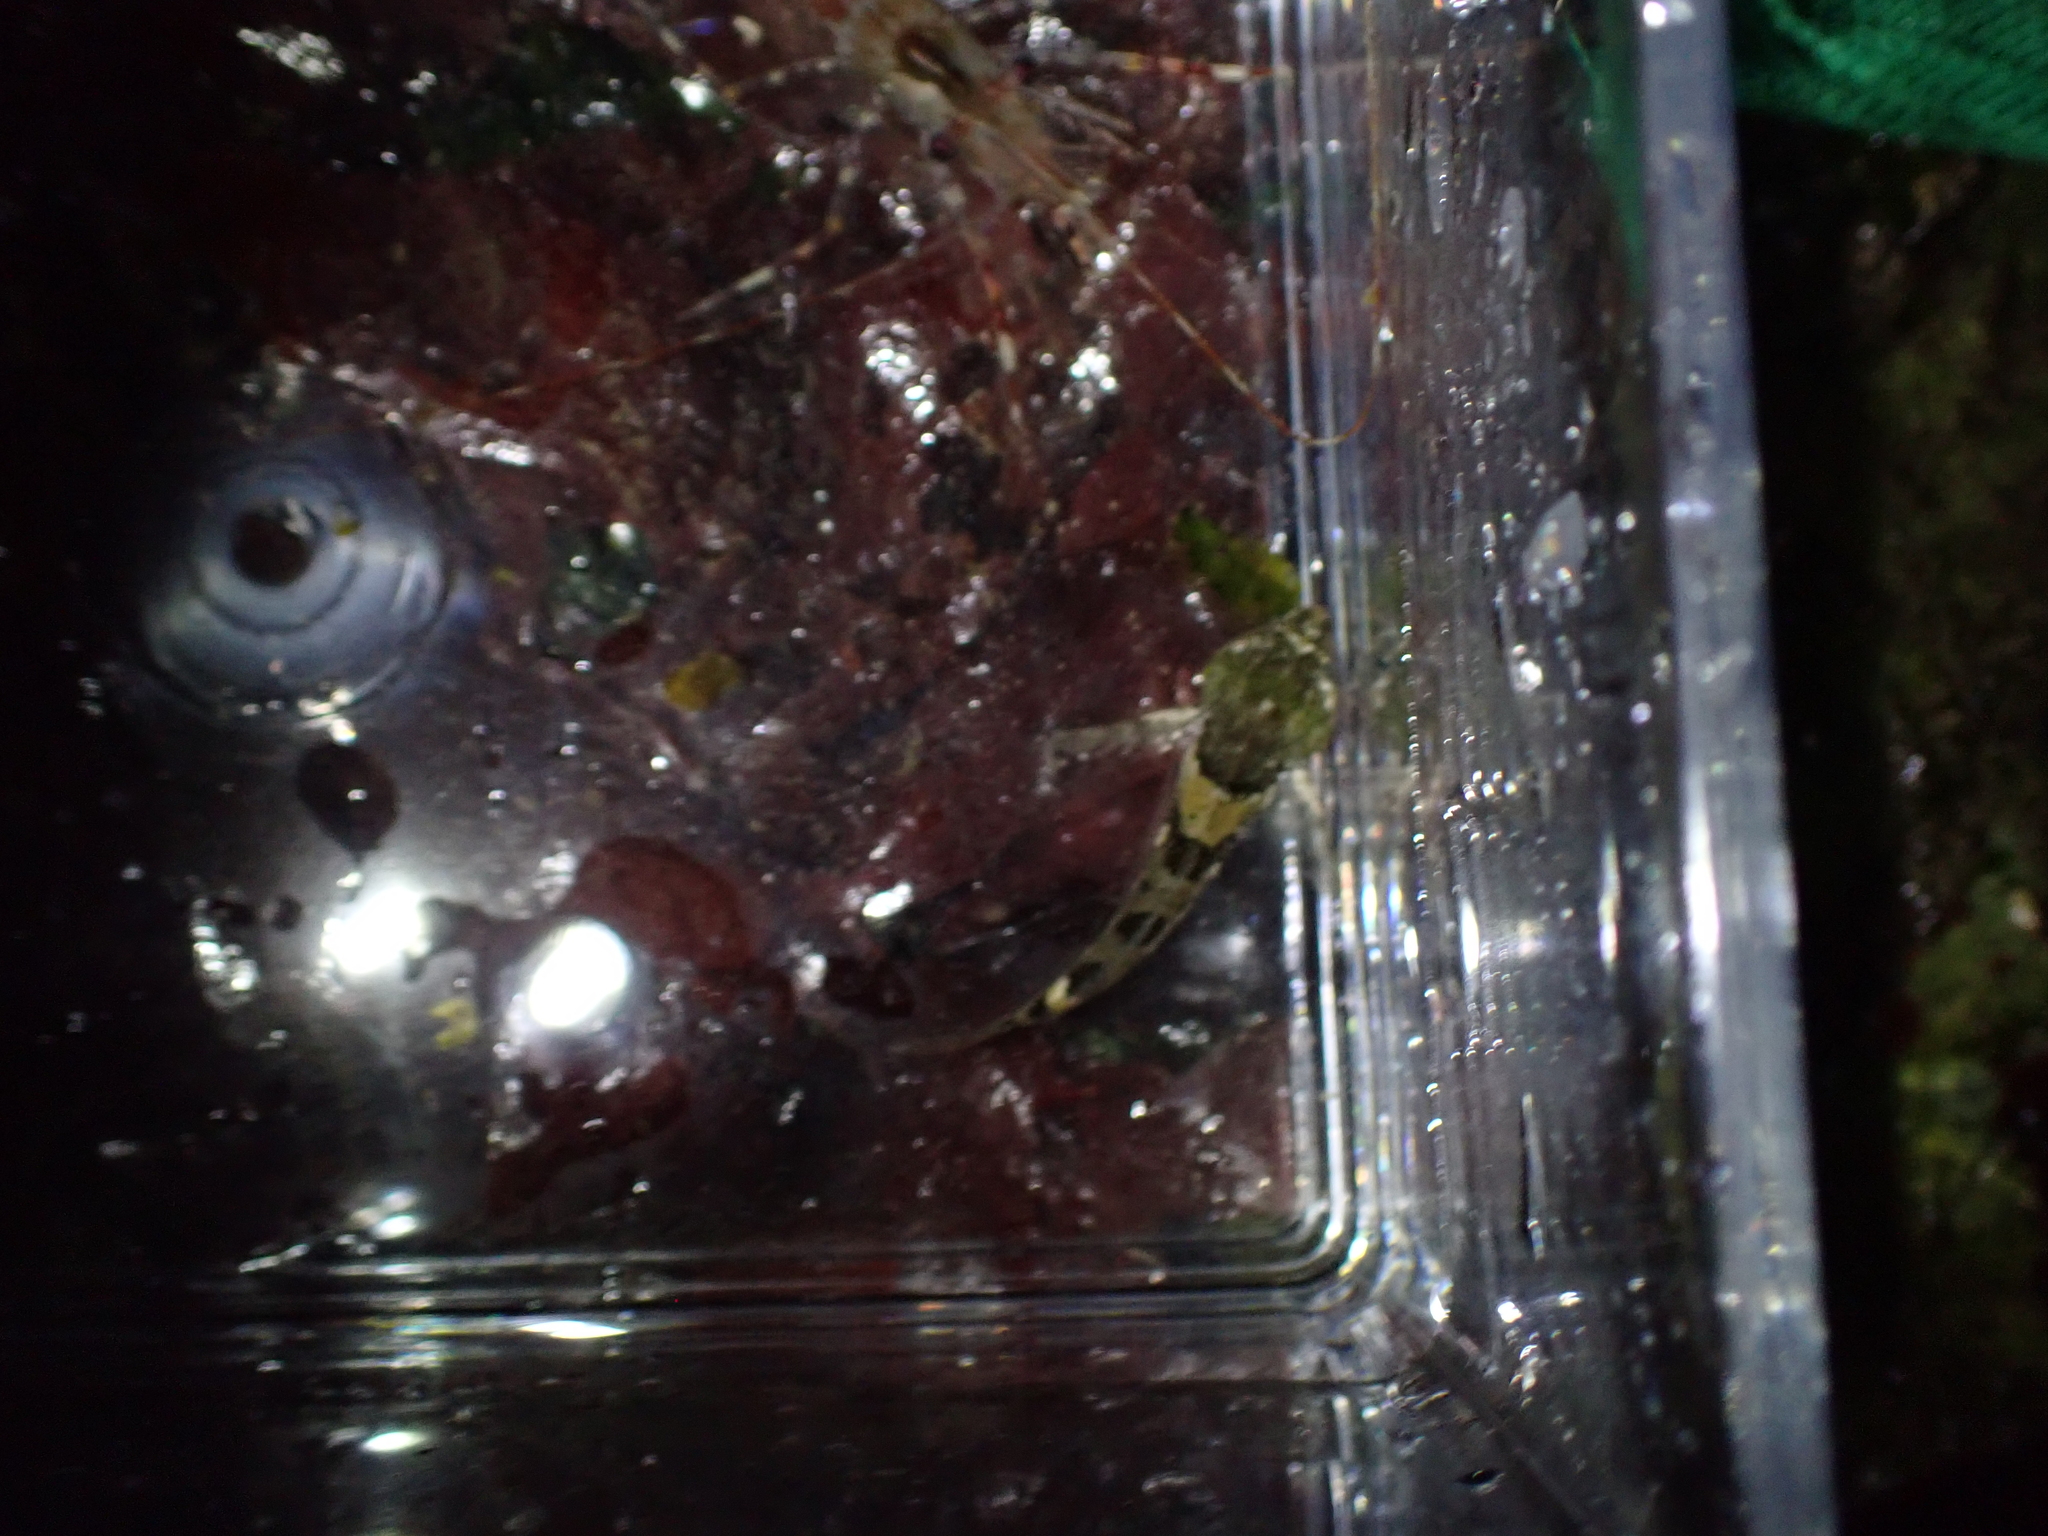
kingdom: Animalia
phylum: Chordata
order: Scorpaeniformes
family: Cottidae
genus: Oligocottus
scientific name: Oligocottus maculosus
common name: Tidepool sculpin
